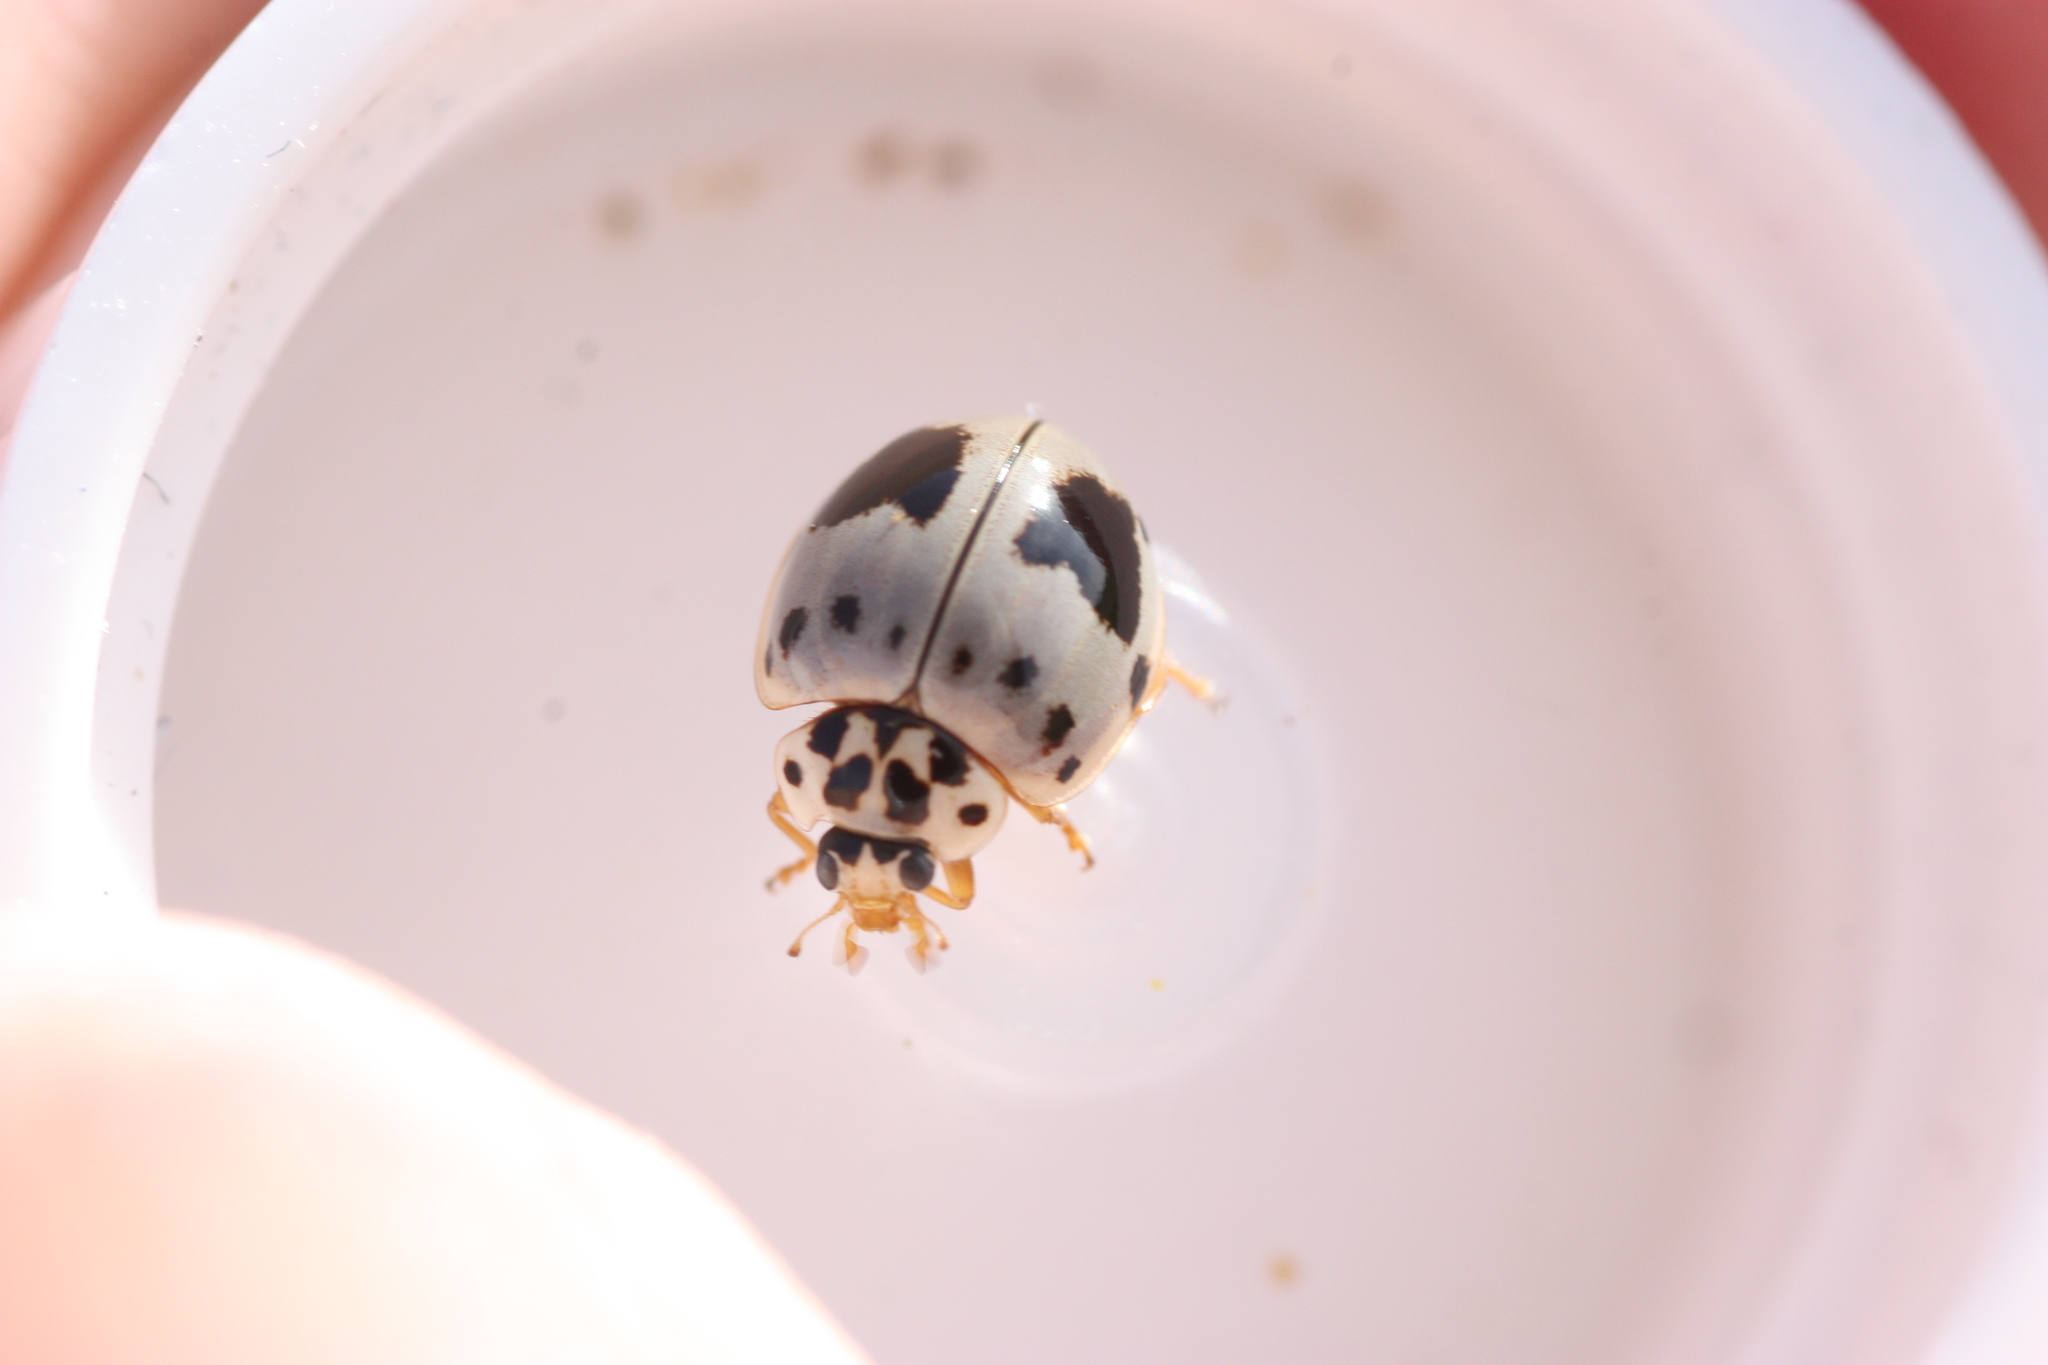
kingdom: Animalia
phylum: Arthropoda
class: Insecta
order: Coleoptera
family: Coccinellidae
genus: Olla
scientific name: Olla v-nigrum
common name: Ashy gray lady beetle
